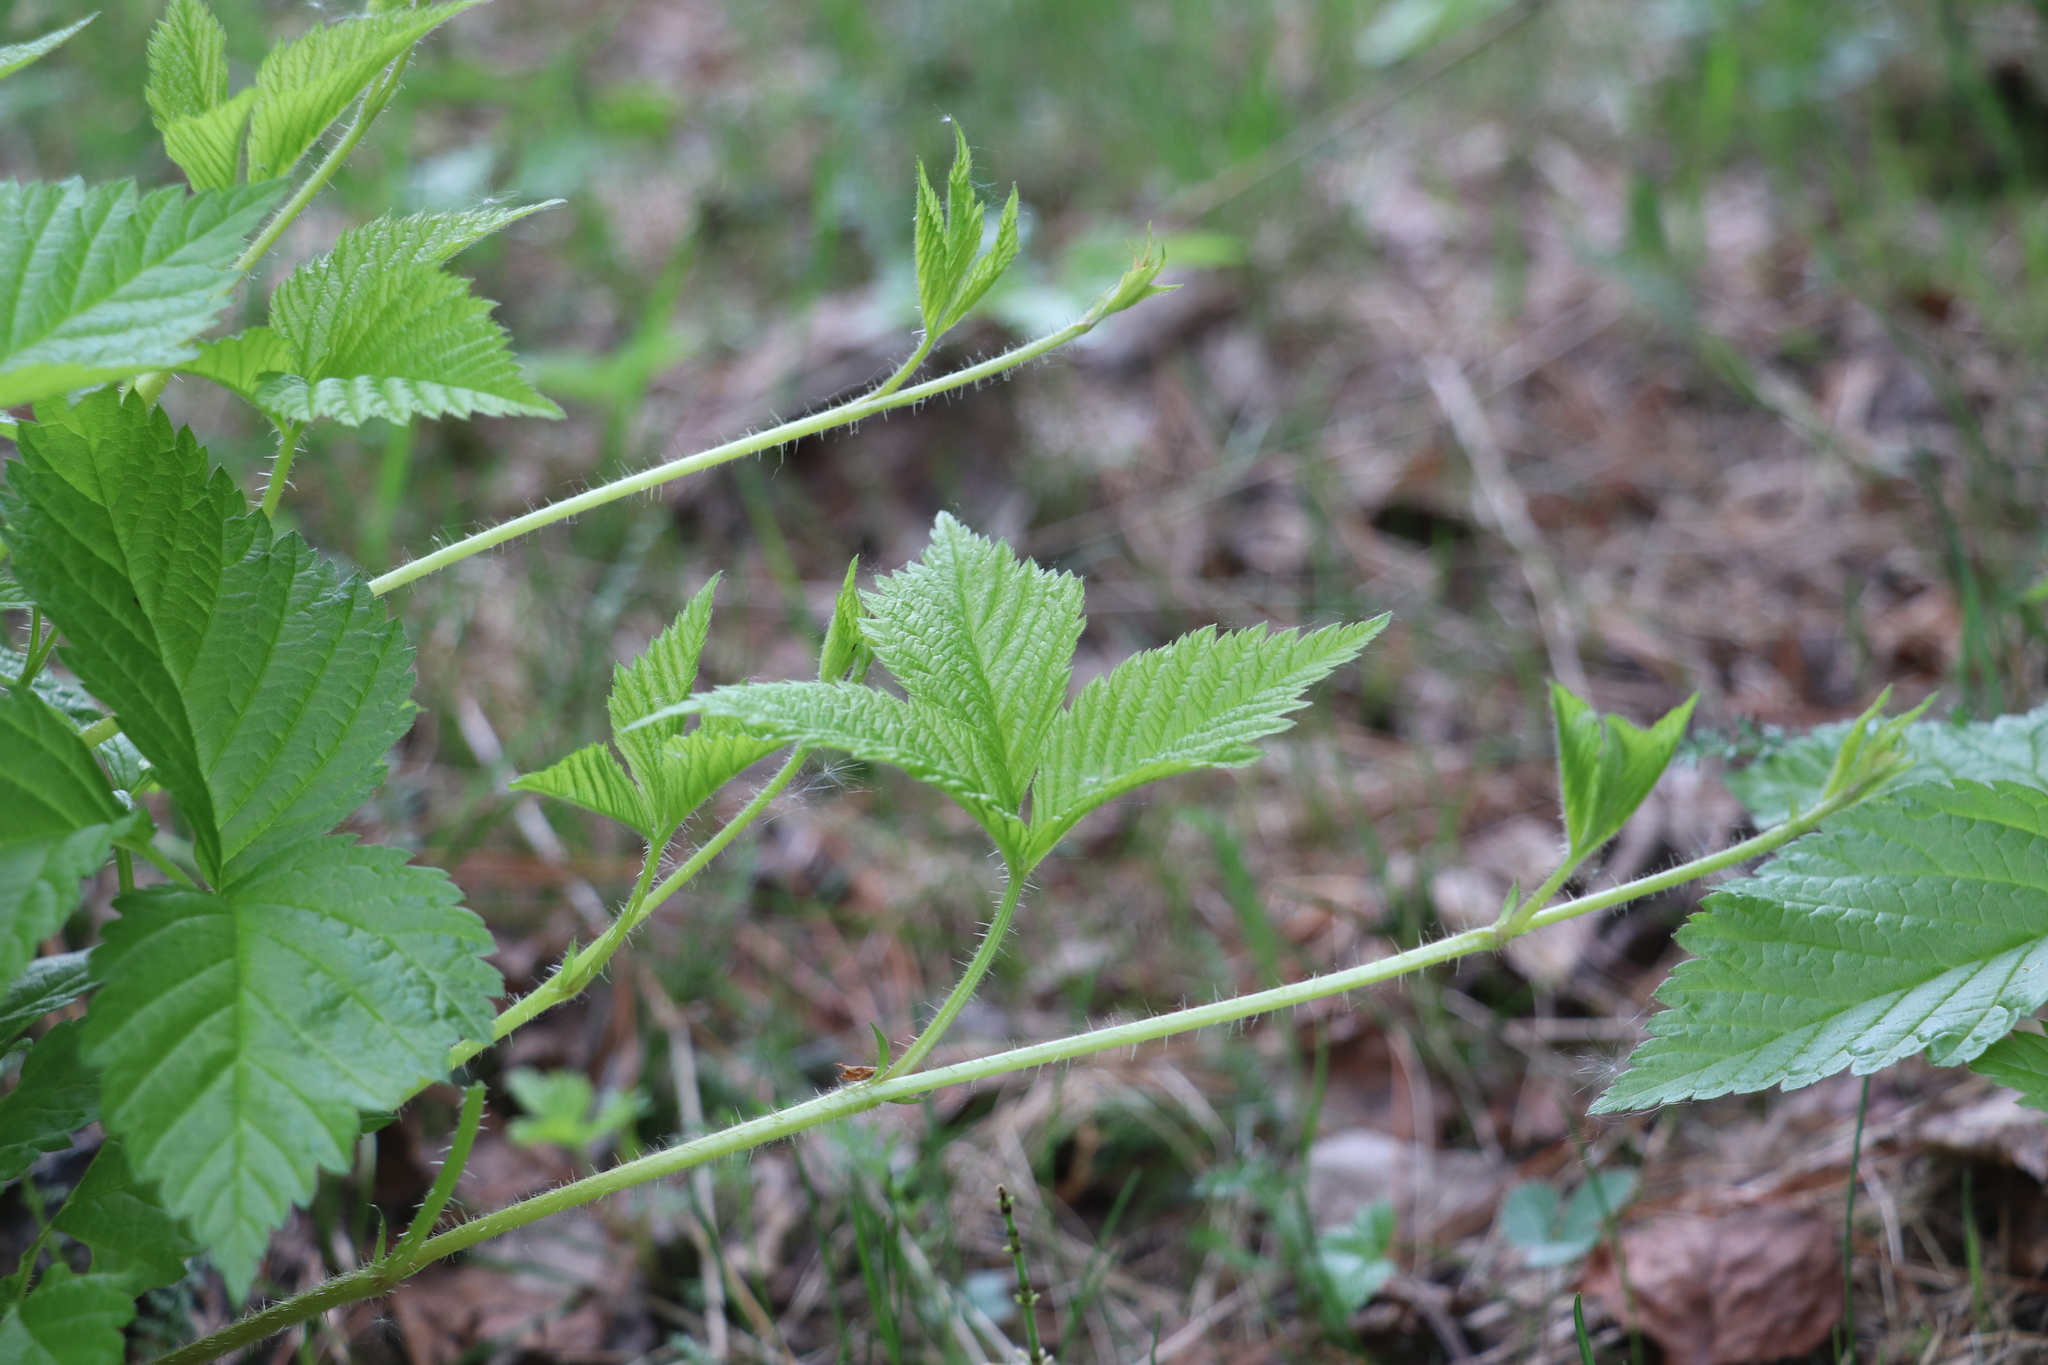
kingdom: Plantae
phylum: Tracheophyta
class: Magnoliopsida
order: Rosales
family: Rosaceae
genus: Rubus
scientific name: Rubus saxatilis
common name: Stone bramble
